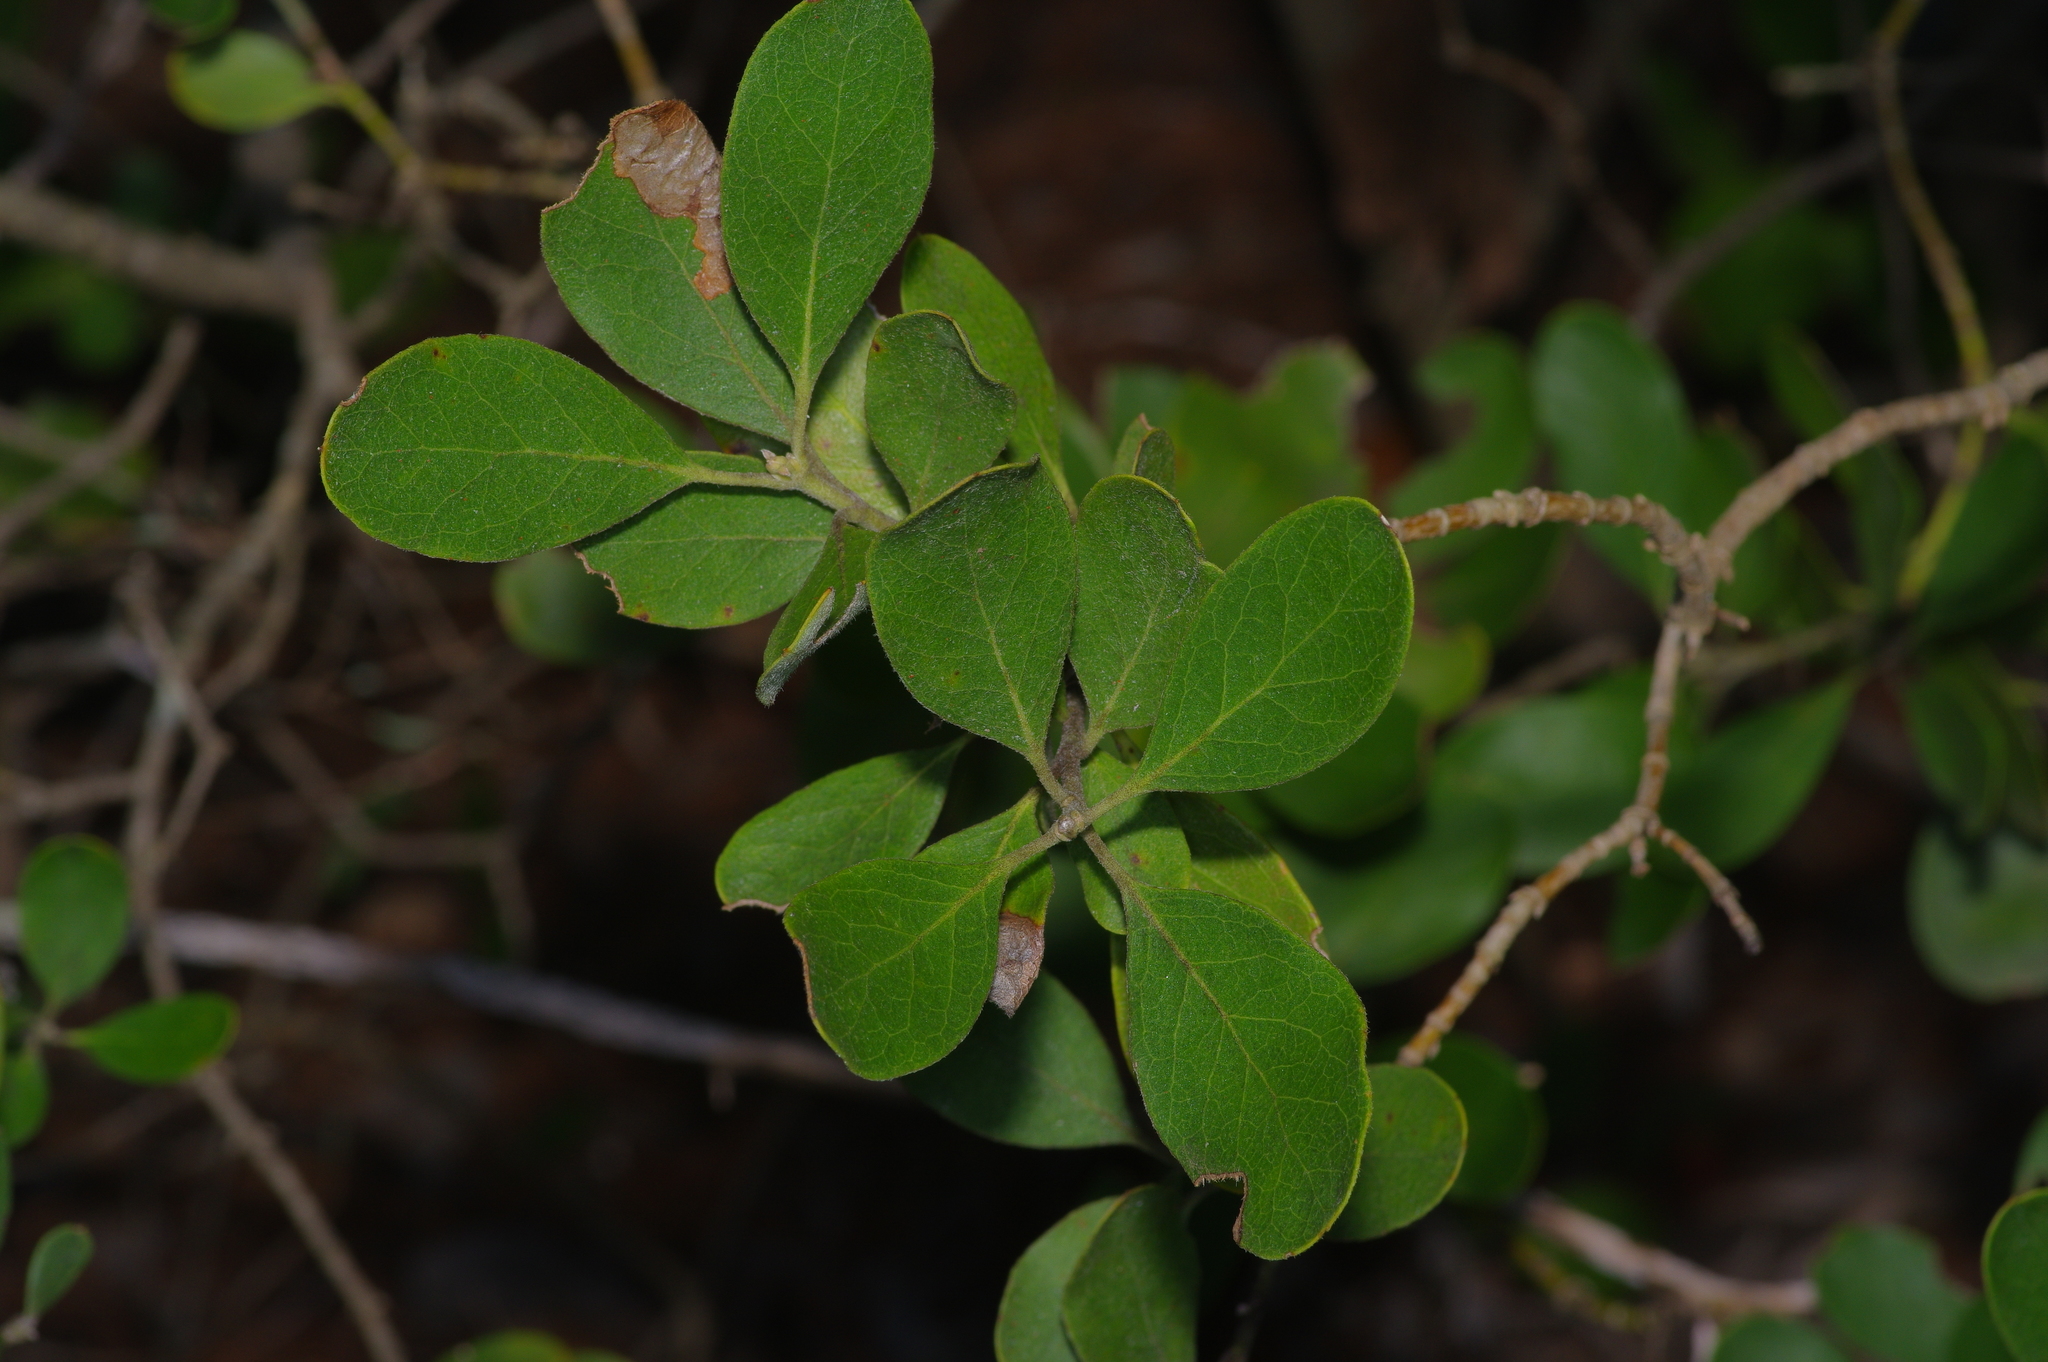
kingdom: Plantae
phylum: Tracheophyta
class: Magnoliopsida
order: Garryales
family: Garryaceae
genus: Garrya
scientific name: Garrya lindheimeri
